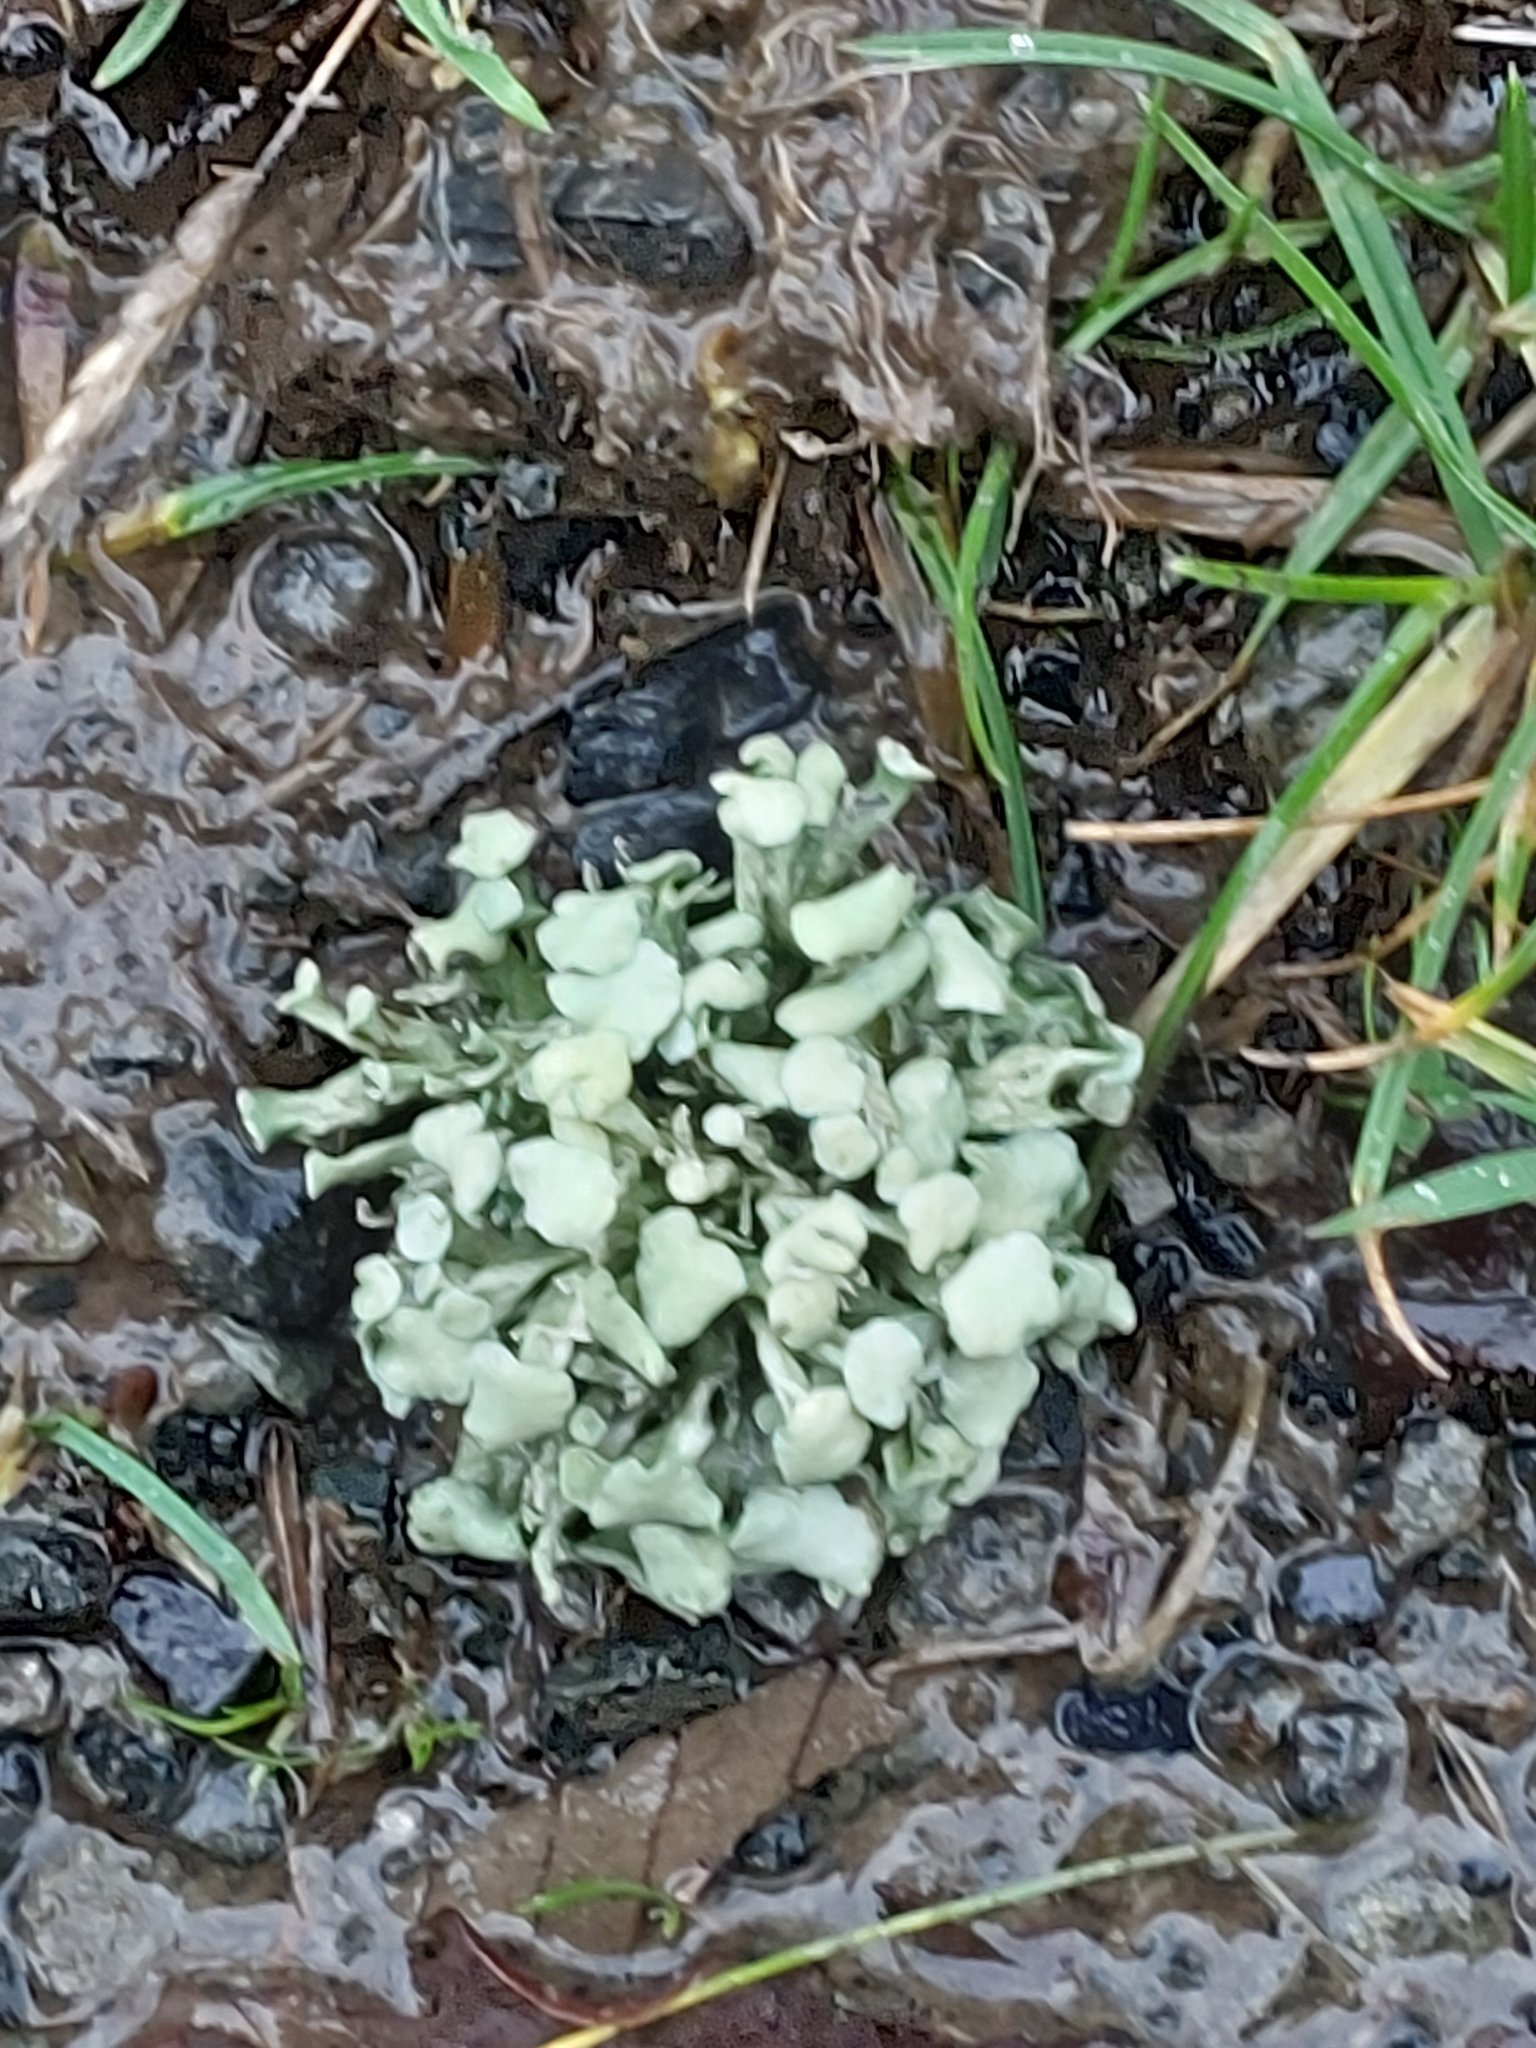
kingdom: Fungi
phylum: Ascomycota
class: Lecanoromycetes
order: Lecanorales
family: Ramalinaceae
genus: Ramalina
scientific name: Ramalina fastigiata
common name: Dotted ribbon lichen
